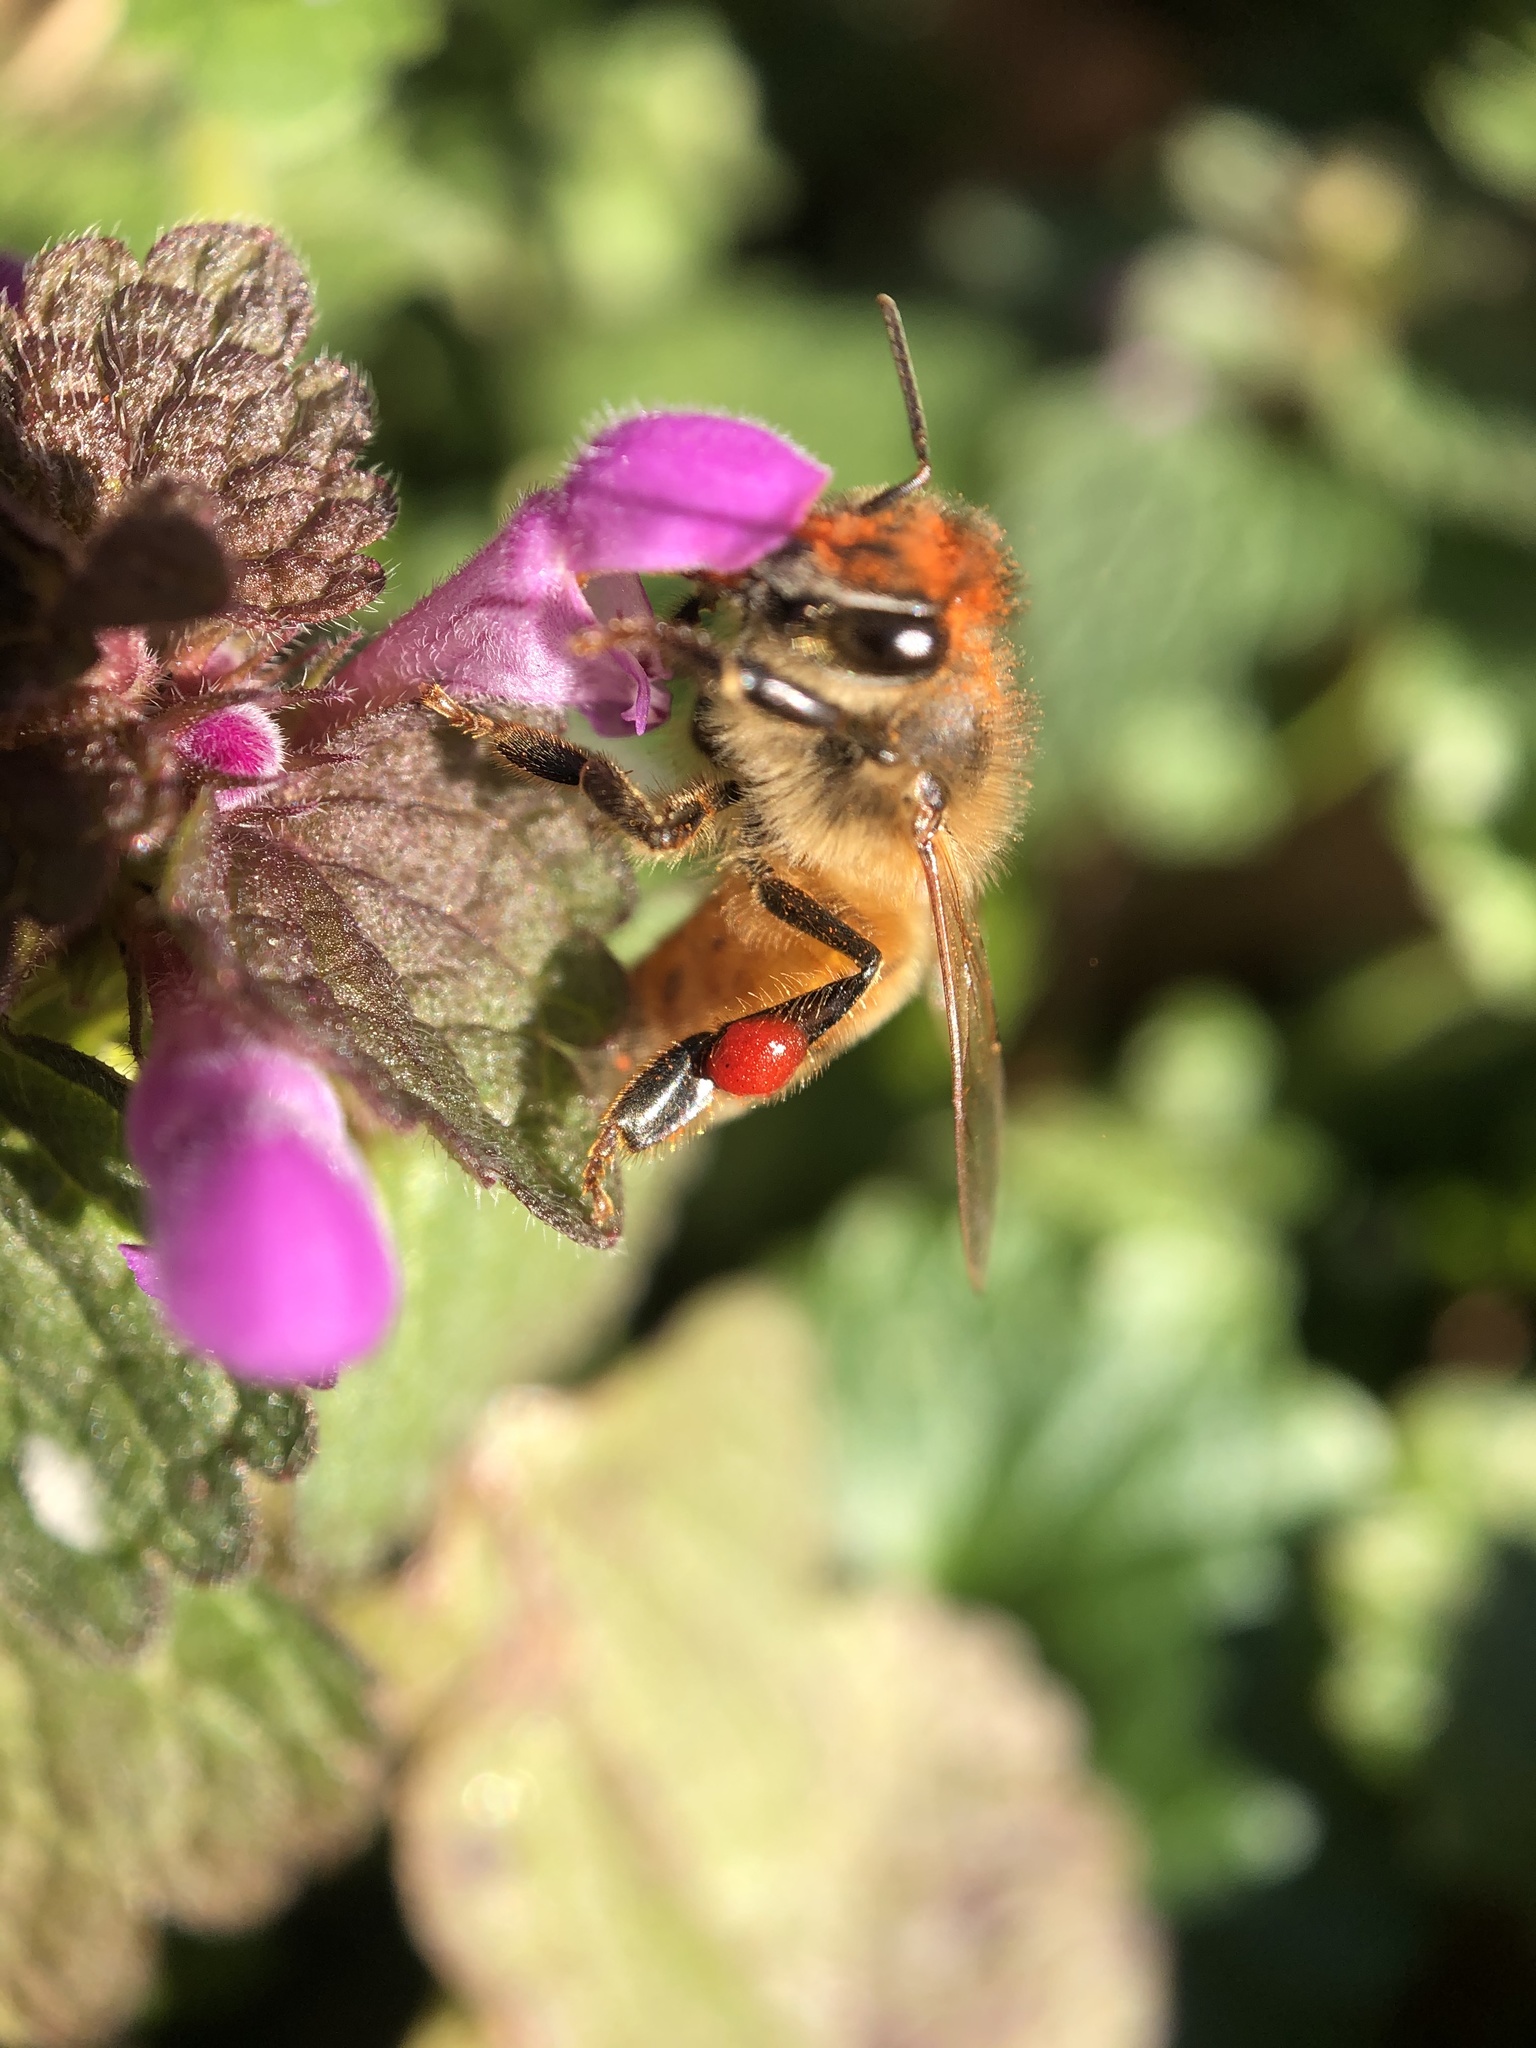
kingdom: Animalia
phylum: Arthropoda
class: Insecta
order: Hymenoptera
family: Apidae
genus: Apis
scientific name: Apis mellifera
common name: Honey bee
